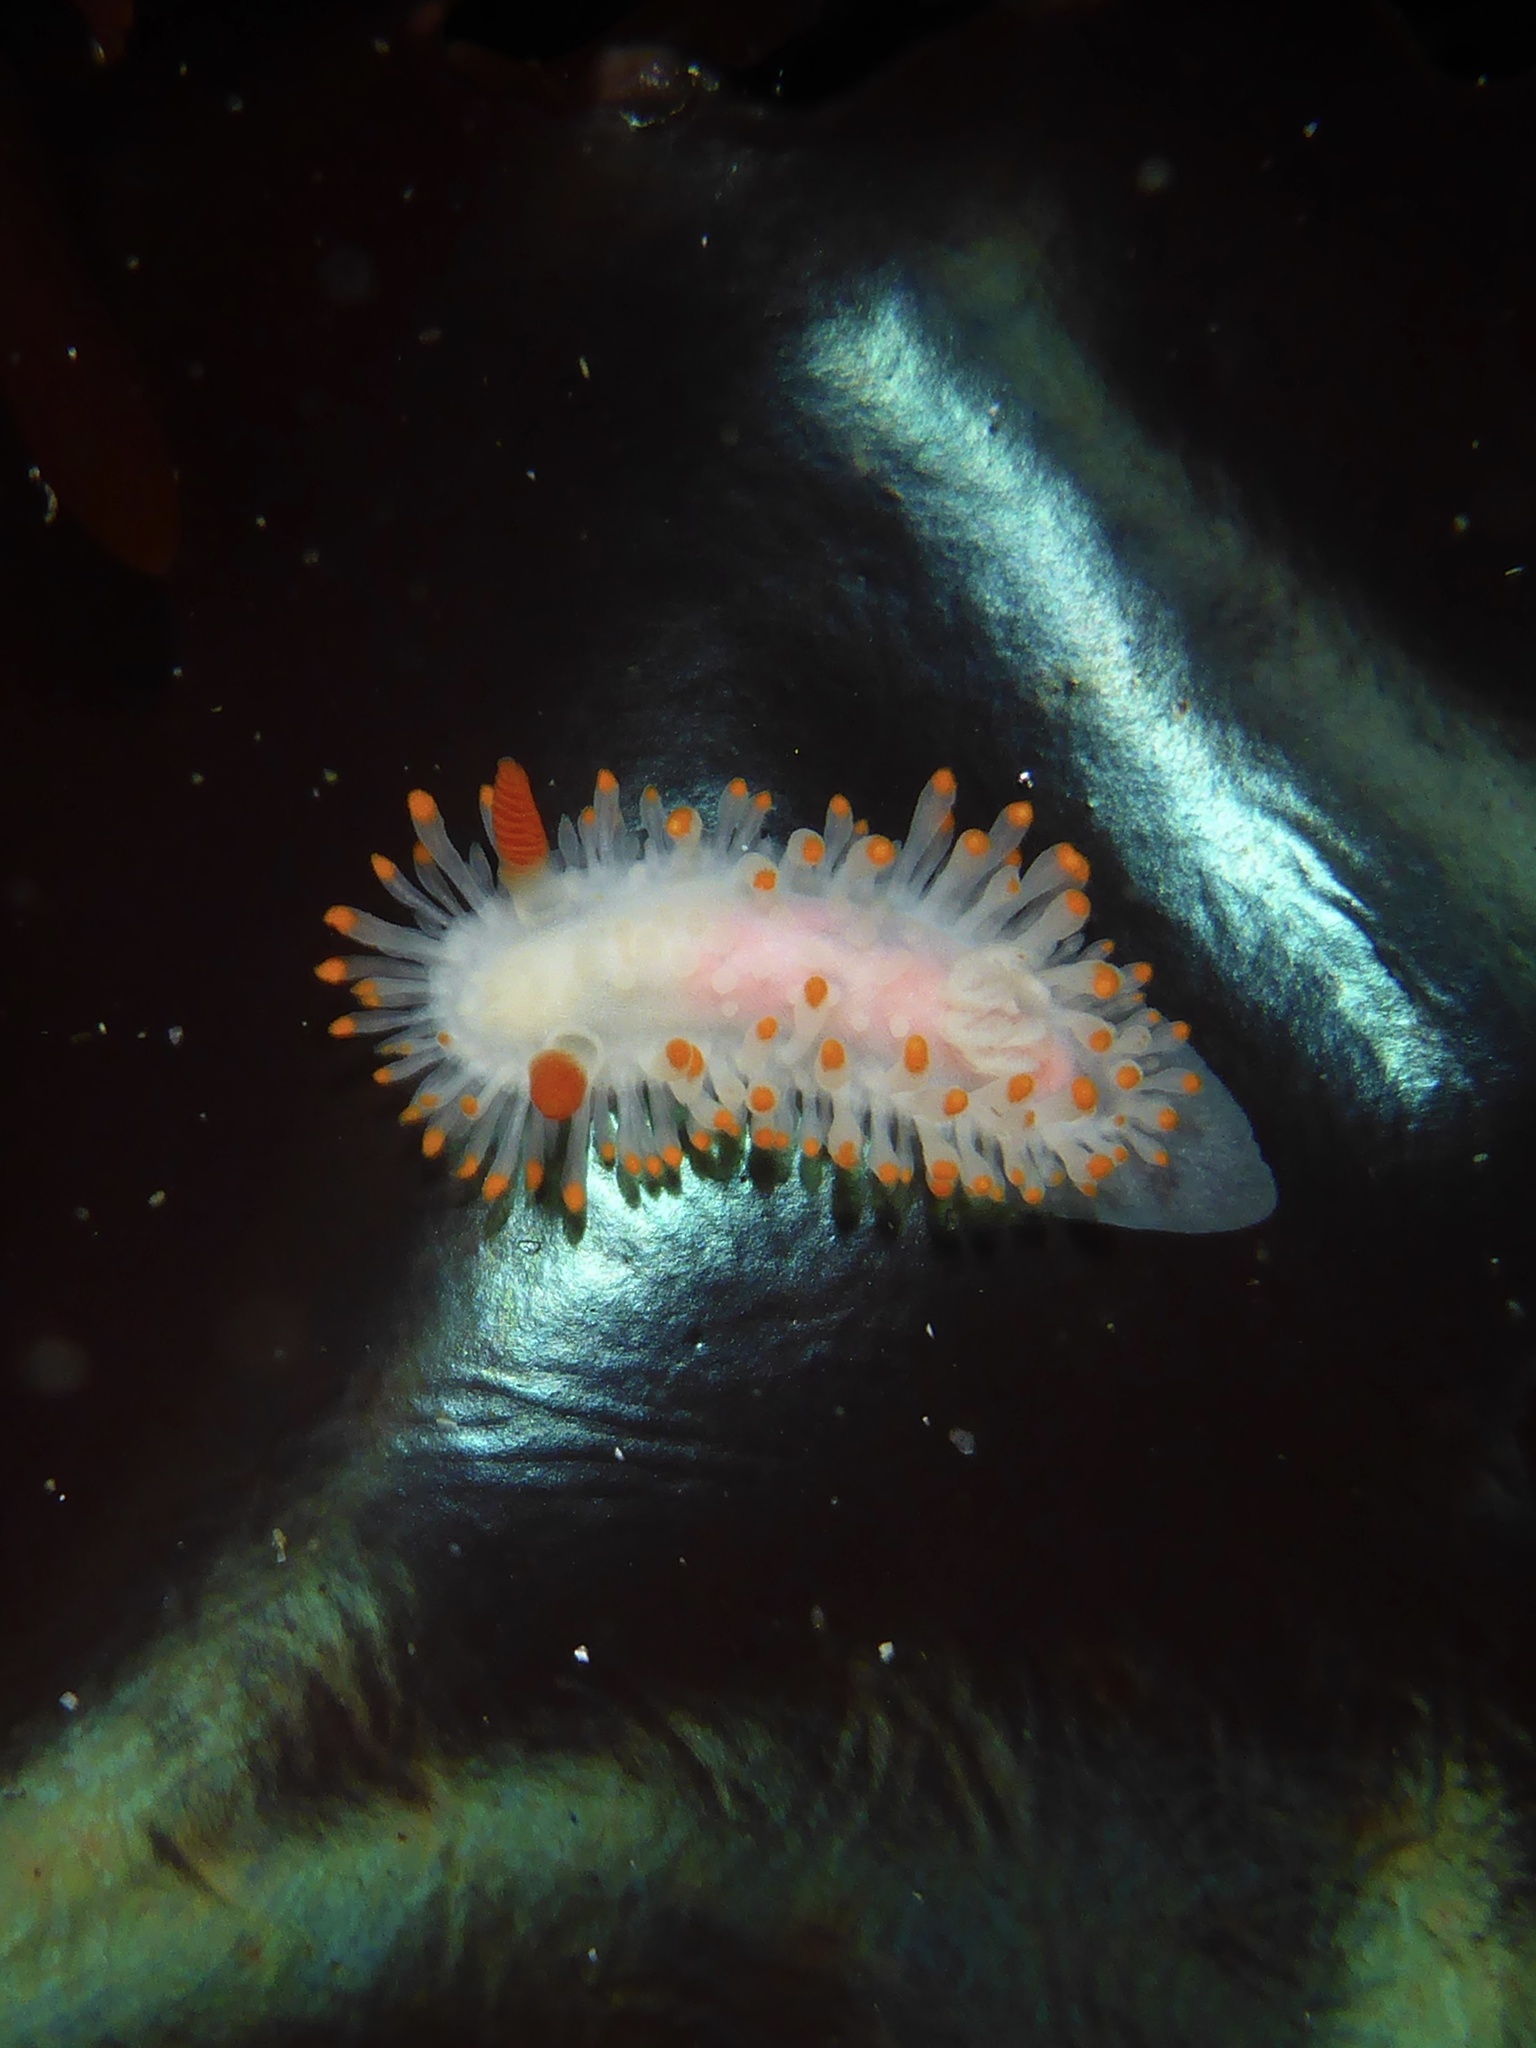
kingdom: Animalia
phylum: Mollusca
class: Gastropoda
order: Nudibranchia
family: Polyceridae
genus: Limacia
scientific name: Limacia cockerelli
